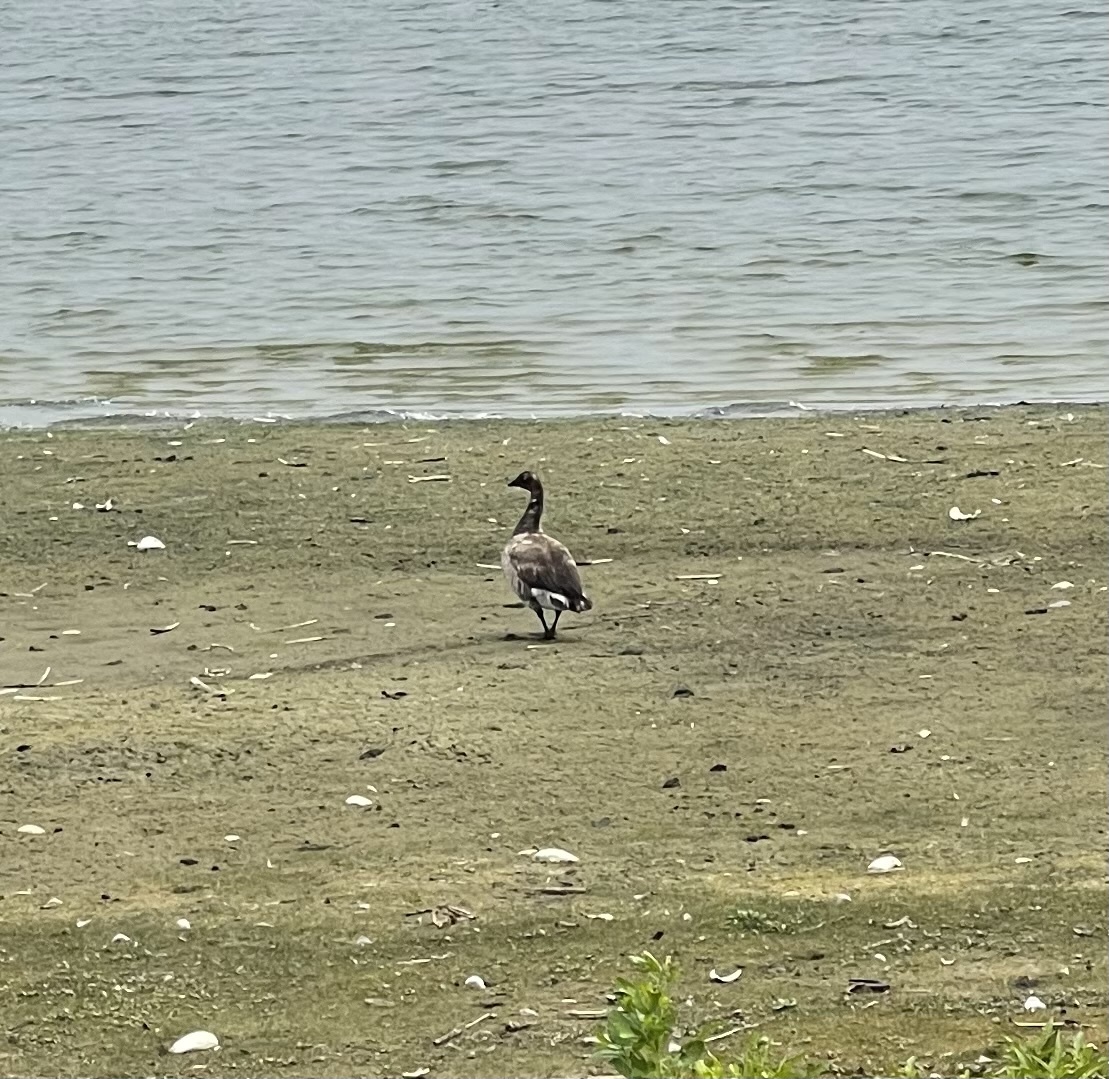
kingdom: Animalia
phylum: Chordata
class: Aves
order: Anseriformes
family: Anatidae
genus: Branta
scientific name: Branta bernicla
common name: Brant goose
